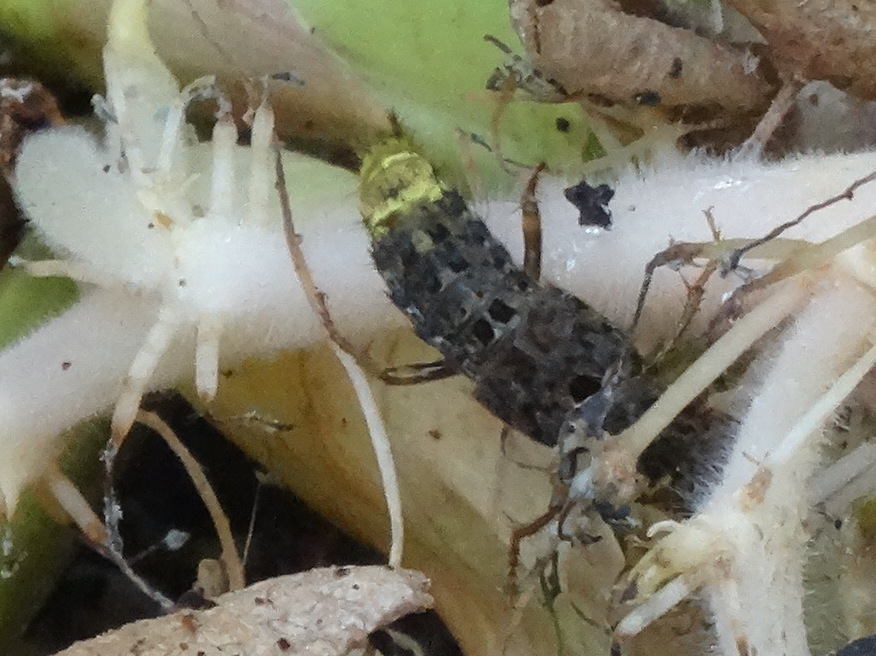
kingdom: Animalia
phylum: Arthropoda
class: Insecta
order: Coleoptera
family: Staphylinidae
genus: Ontholestes
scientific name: Ontholestes cingulatus
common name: Gold-and-brown rove beetle
